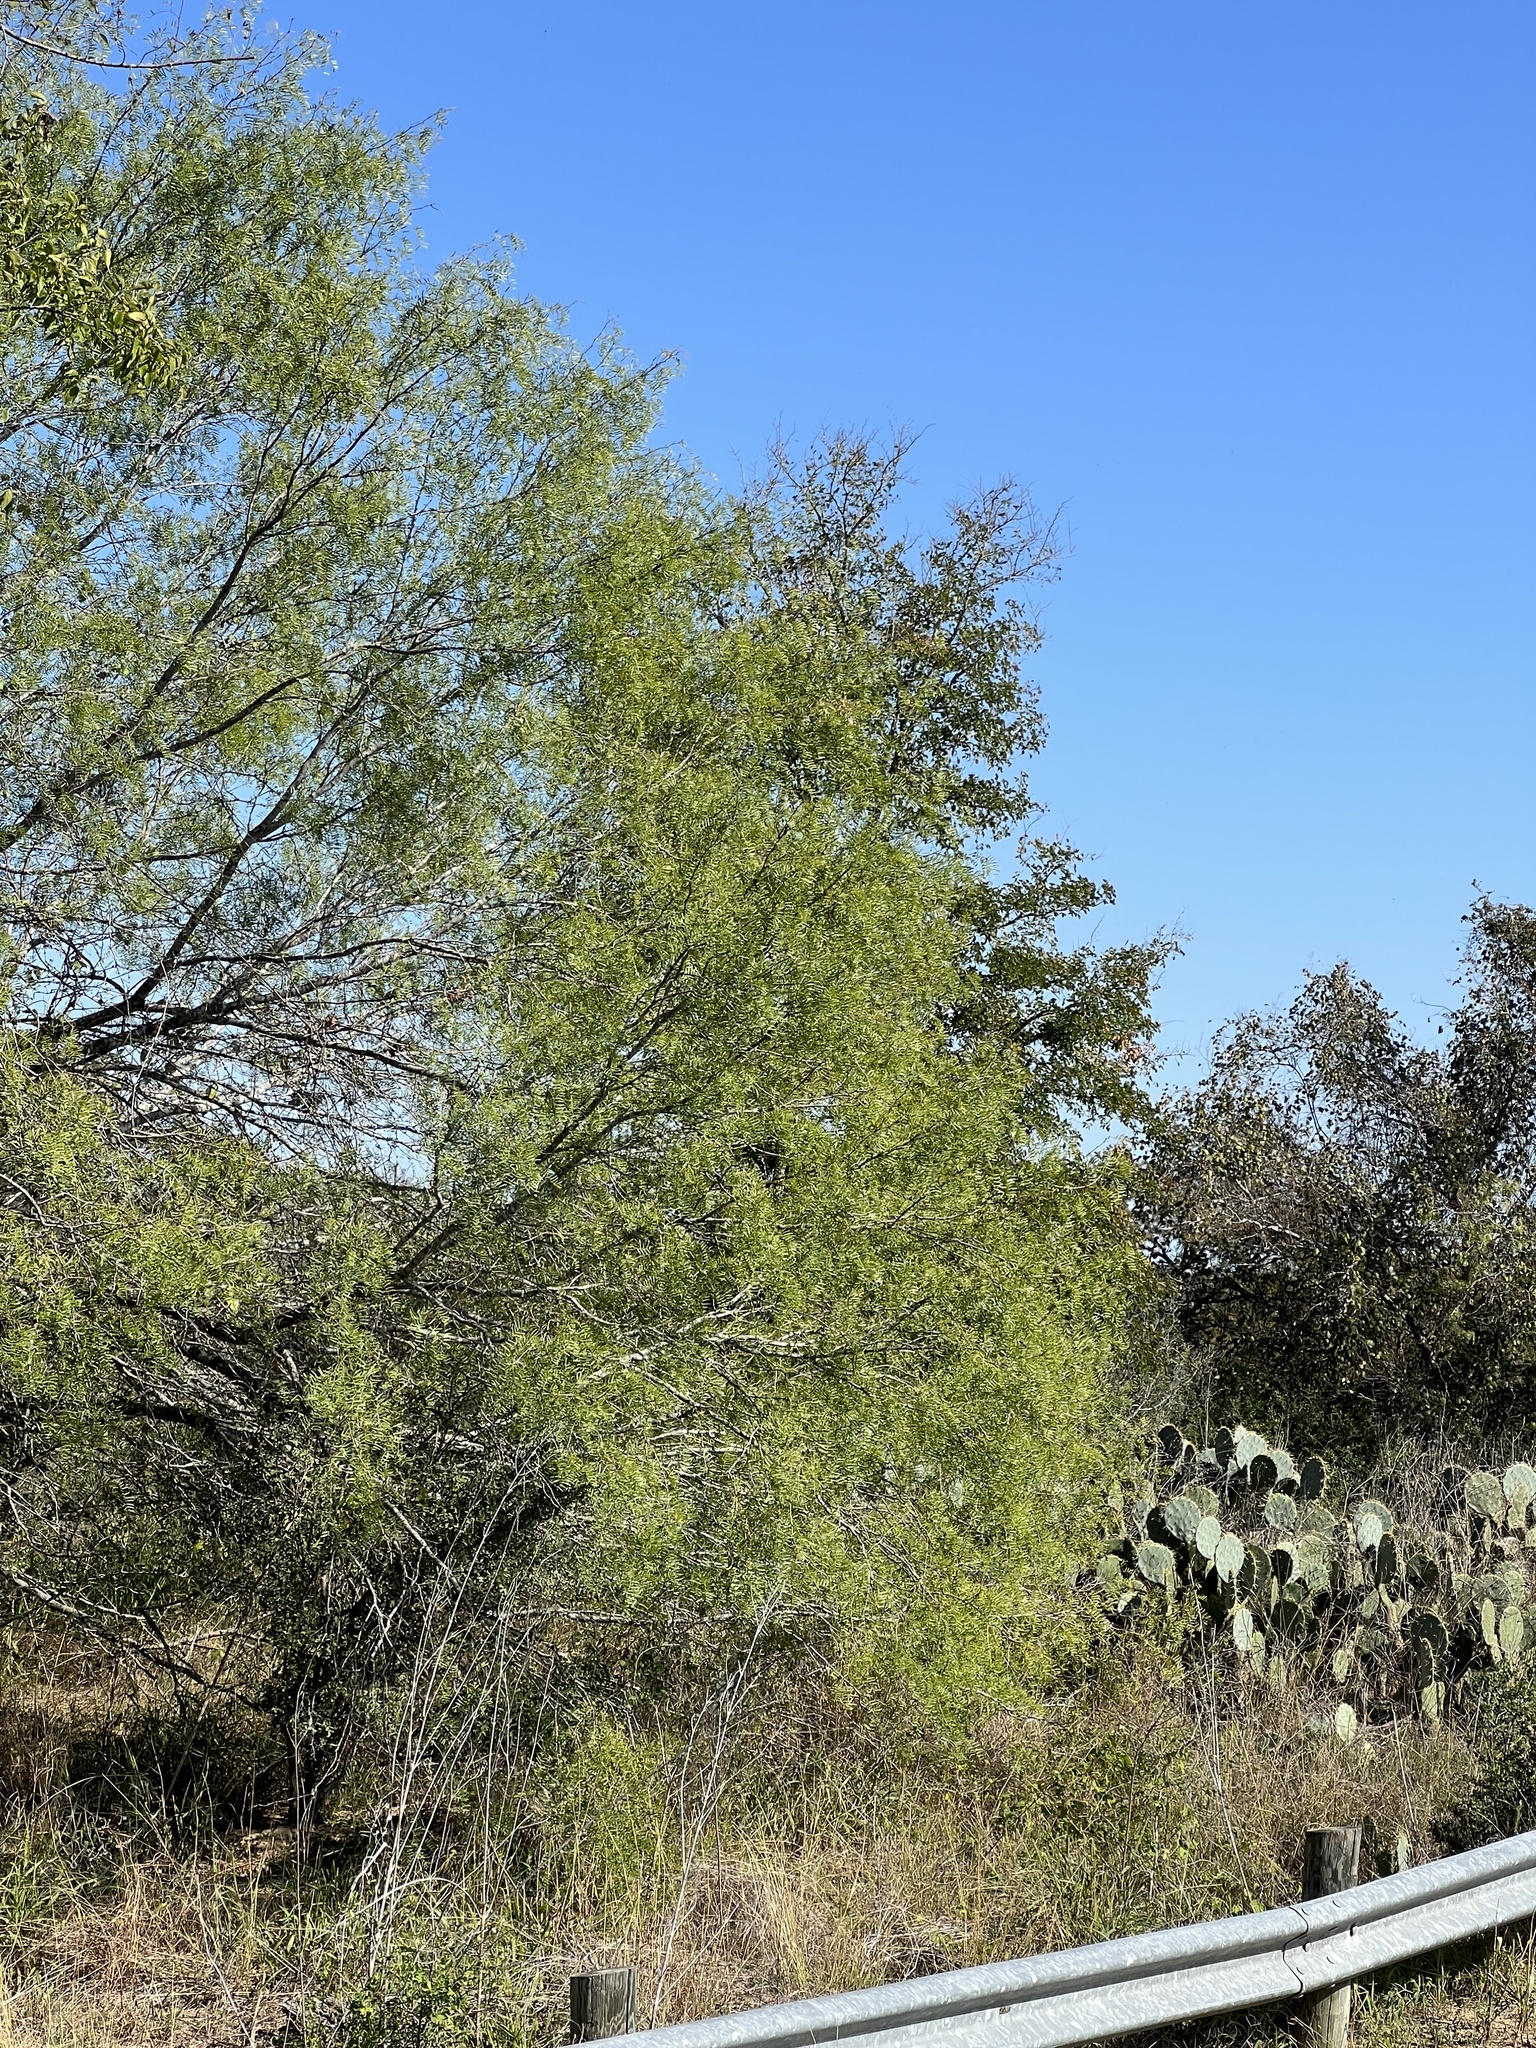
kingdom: Plantae
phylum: Tracheophyta
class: Magnoliopsida
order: Fabales
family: Fabaceae
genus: Prosopis
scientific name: Prosopis glandulosa
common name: Honey mesquite
